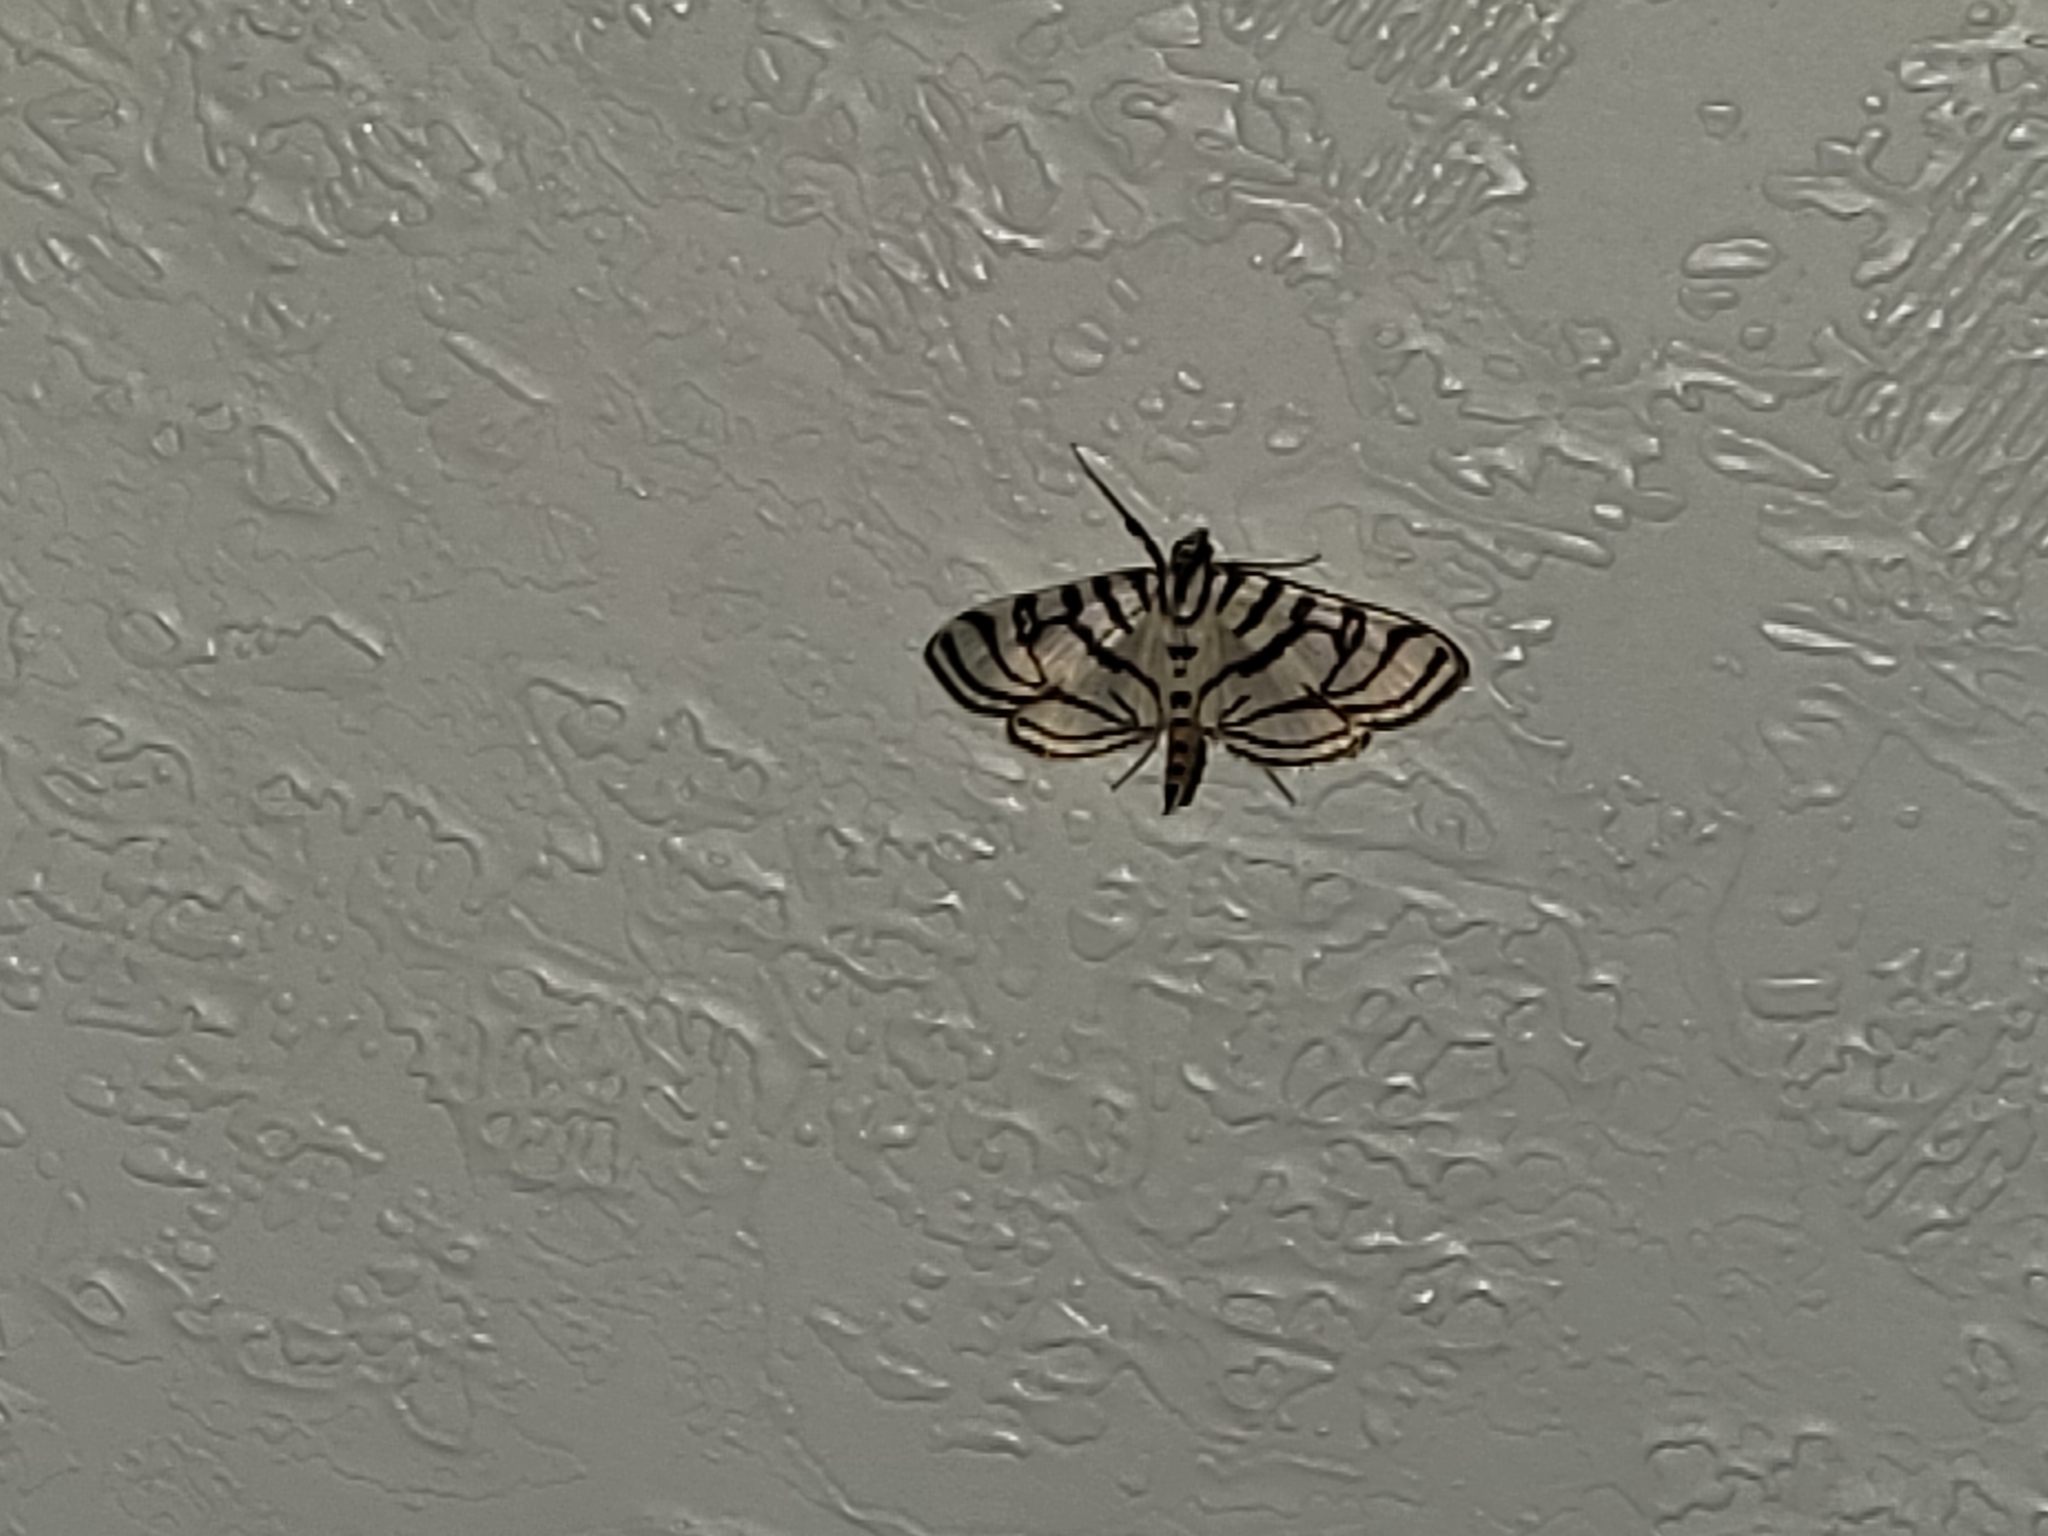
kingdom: Animalia
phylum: Arthropoda
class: Insecta
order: Lepidoptera
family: Crambidae
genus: Conchylodes
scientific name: Conchylodes ovulalis
